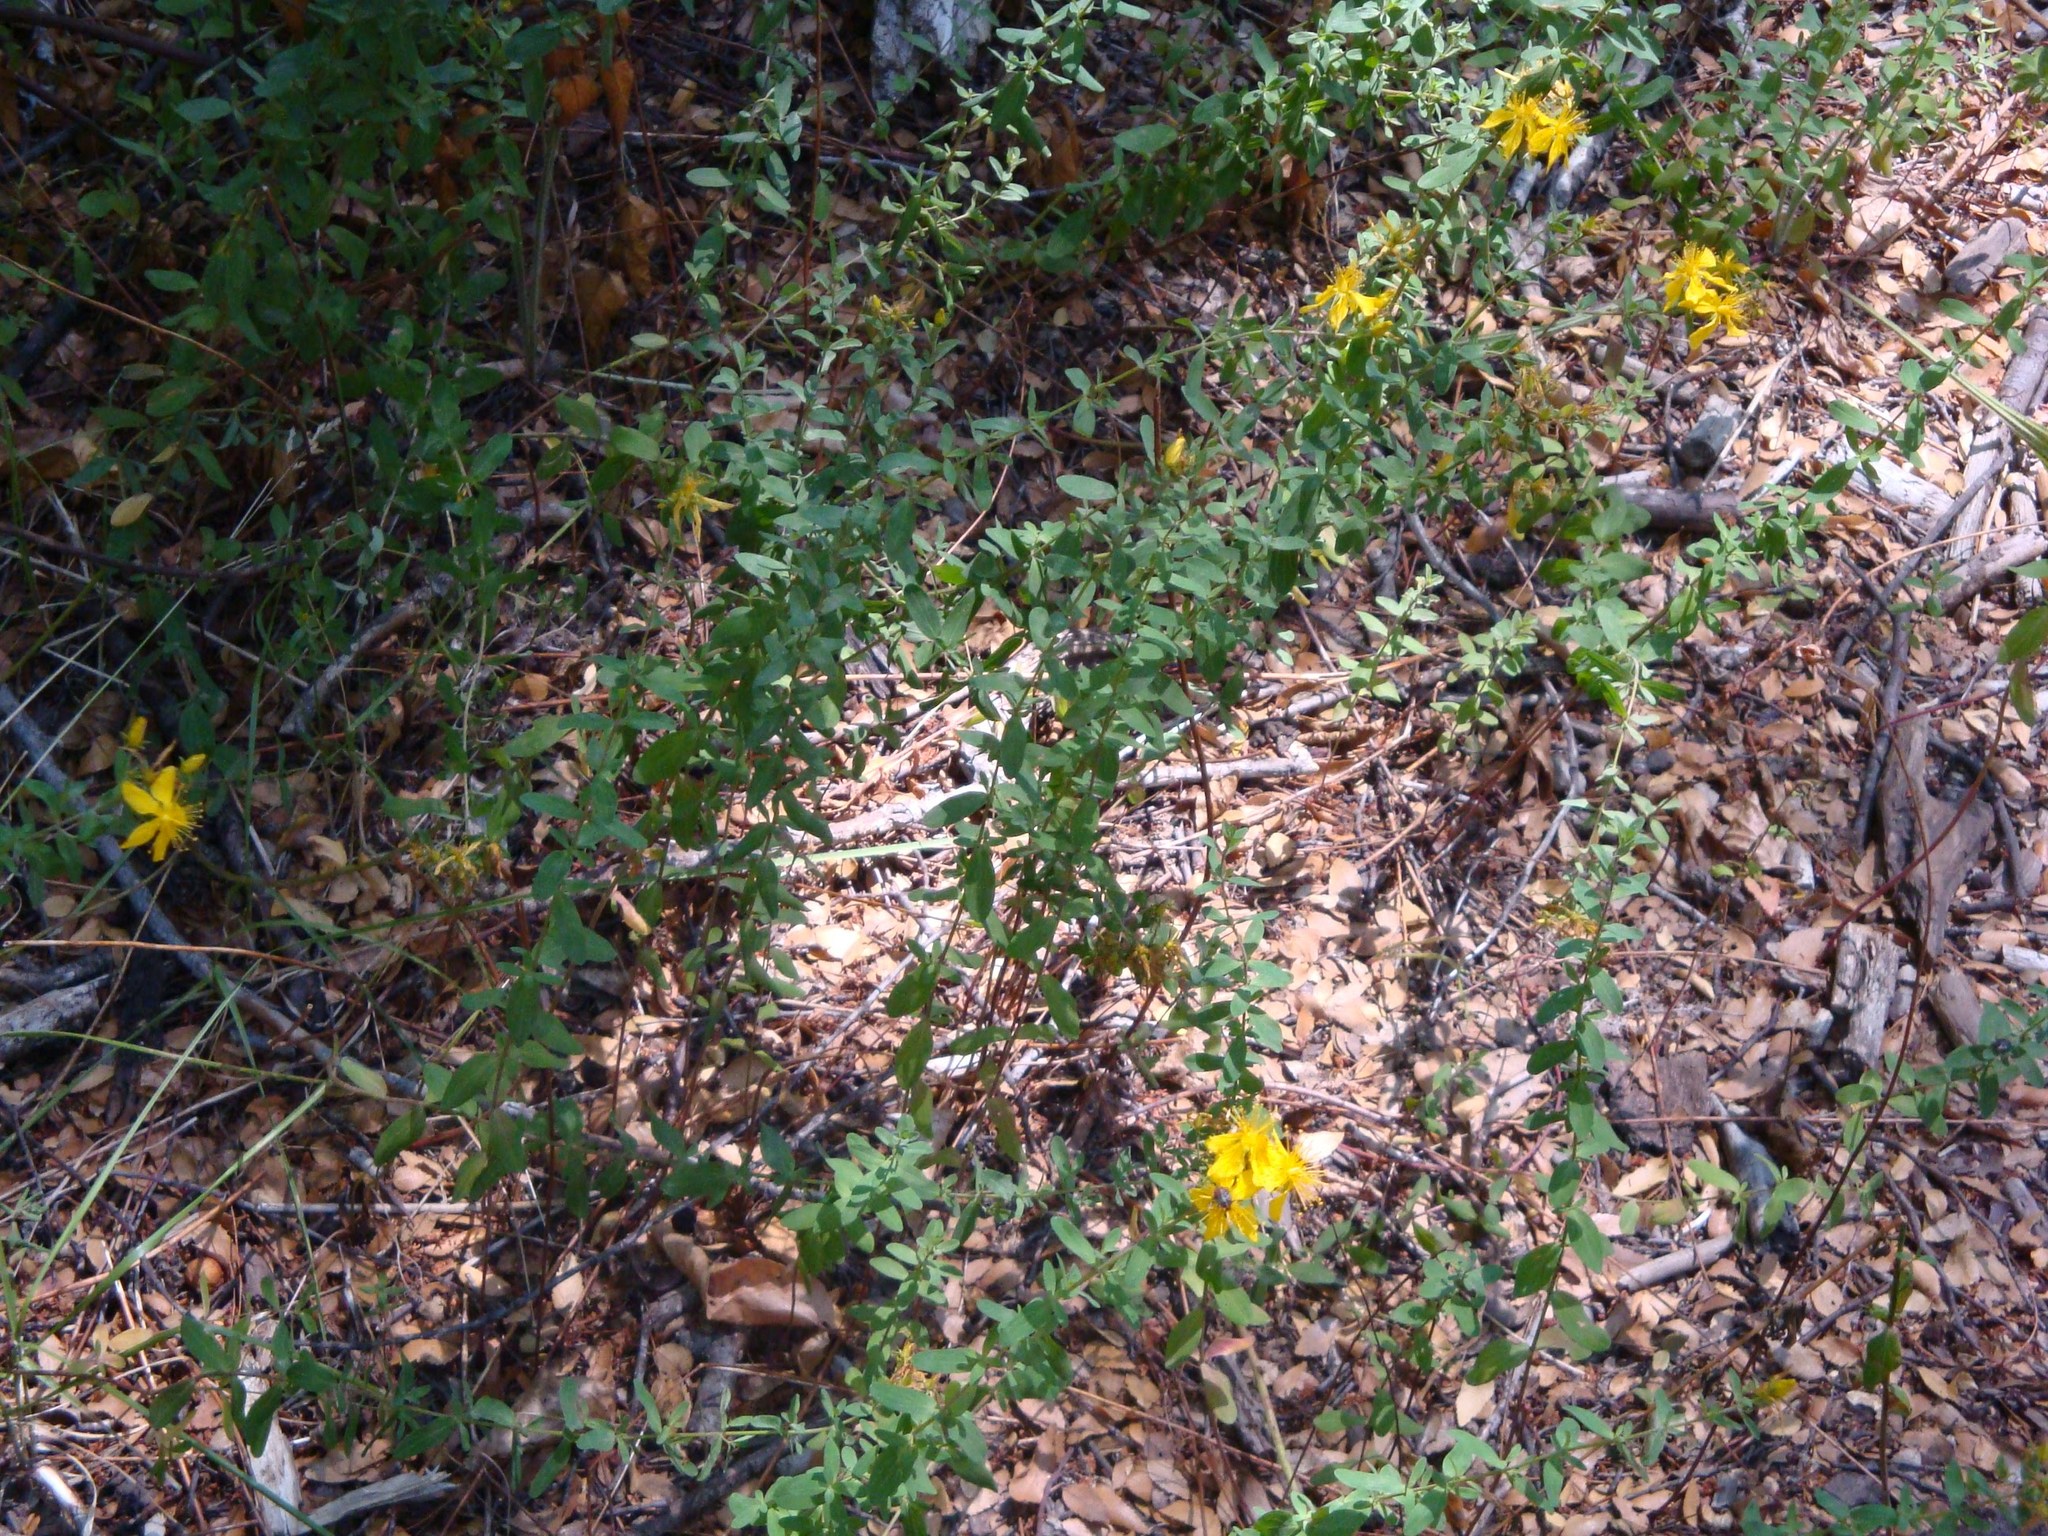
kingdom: Plantae
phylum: Tracheophyta
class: Magnoliopsida
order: Malpighiales
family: Hypericaceae
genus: Hypericum
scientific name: Hypericum perforatum
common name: Common st. johnswort
